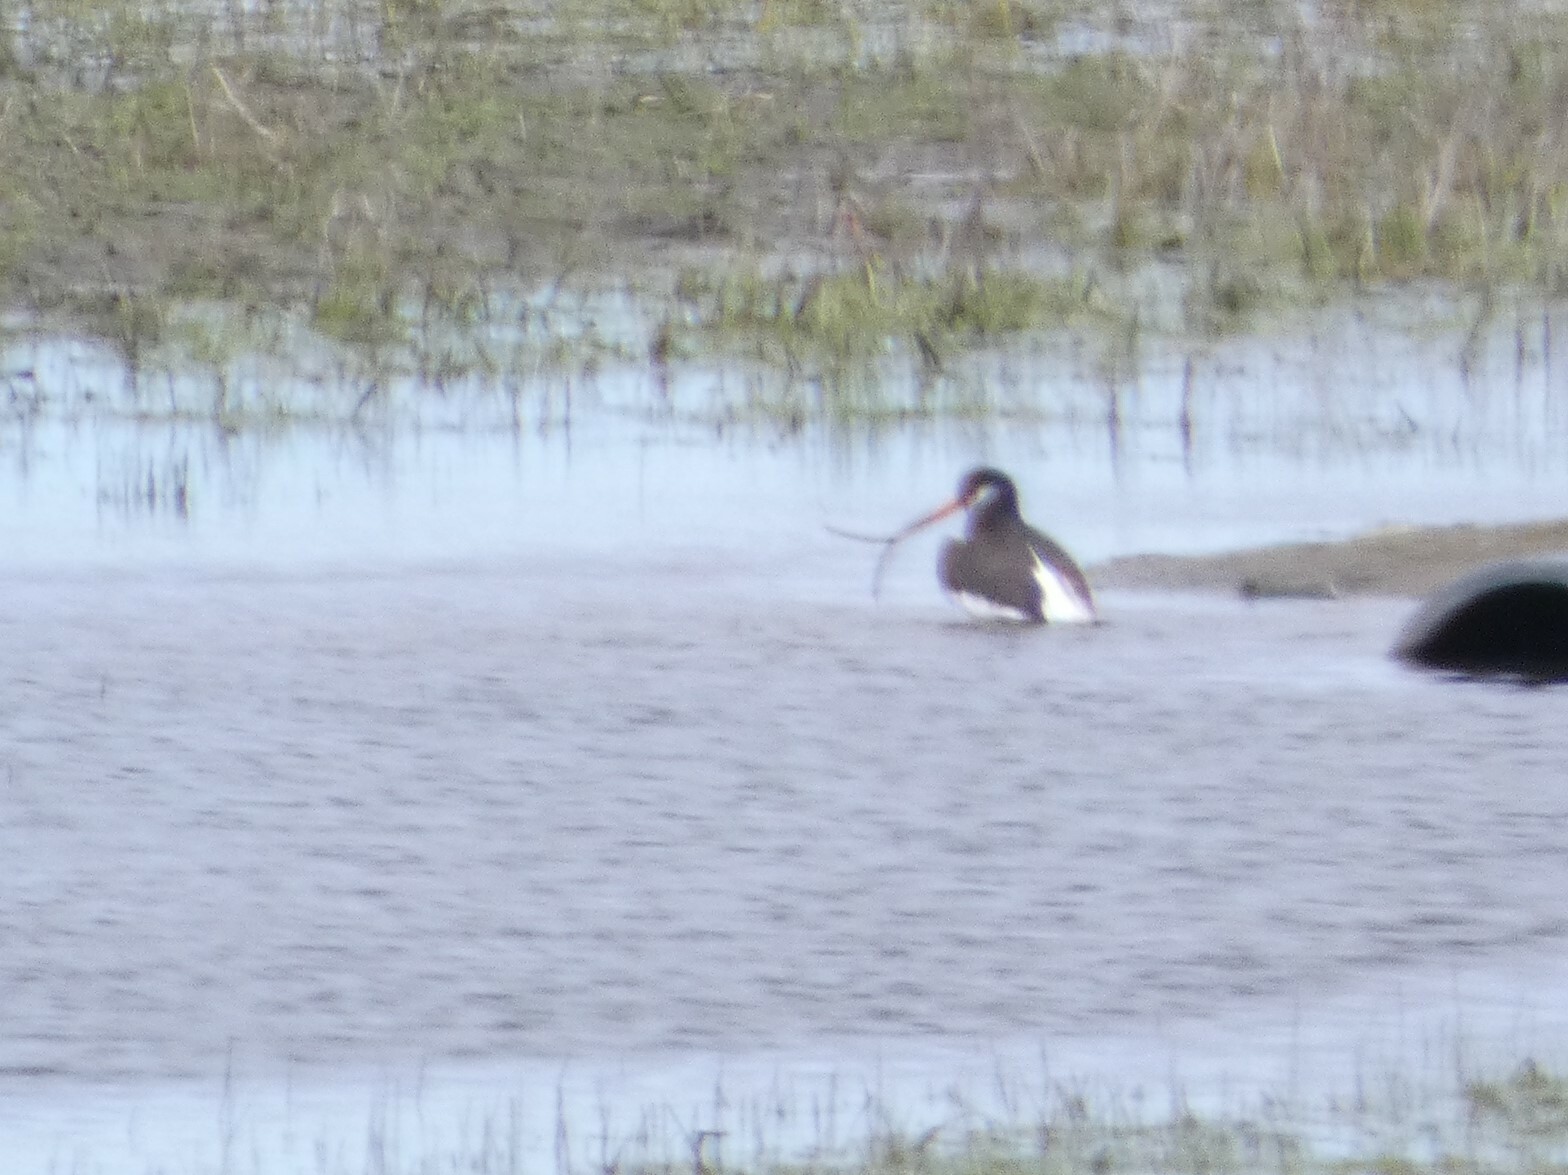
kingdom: Animalia
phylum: Chordata
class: Aves
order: Charadriiformes
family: Haematopodidae
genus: Haematopus
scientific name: Haematopus ostralegus
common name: Eurasian oystercatcher
